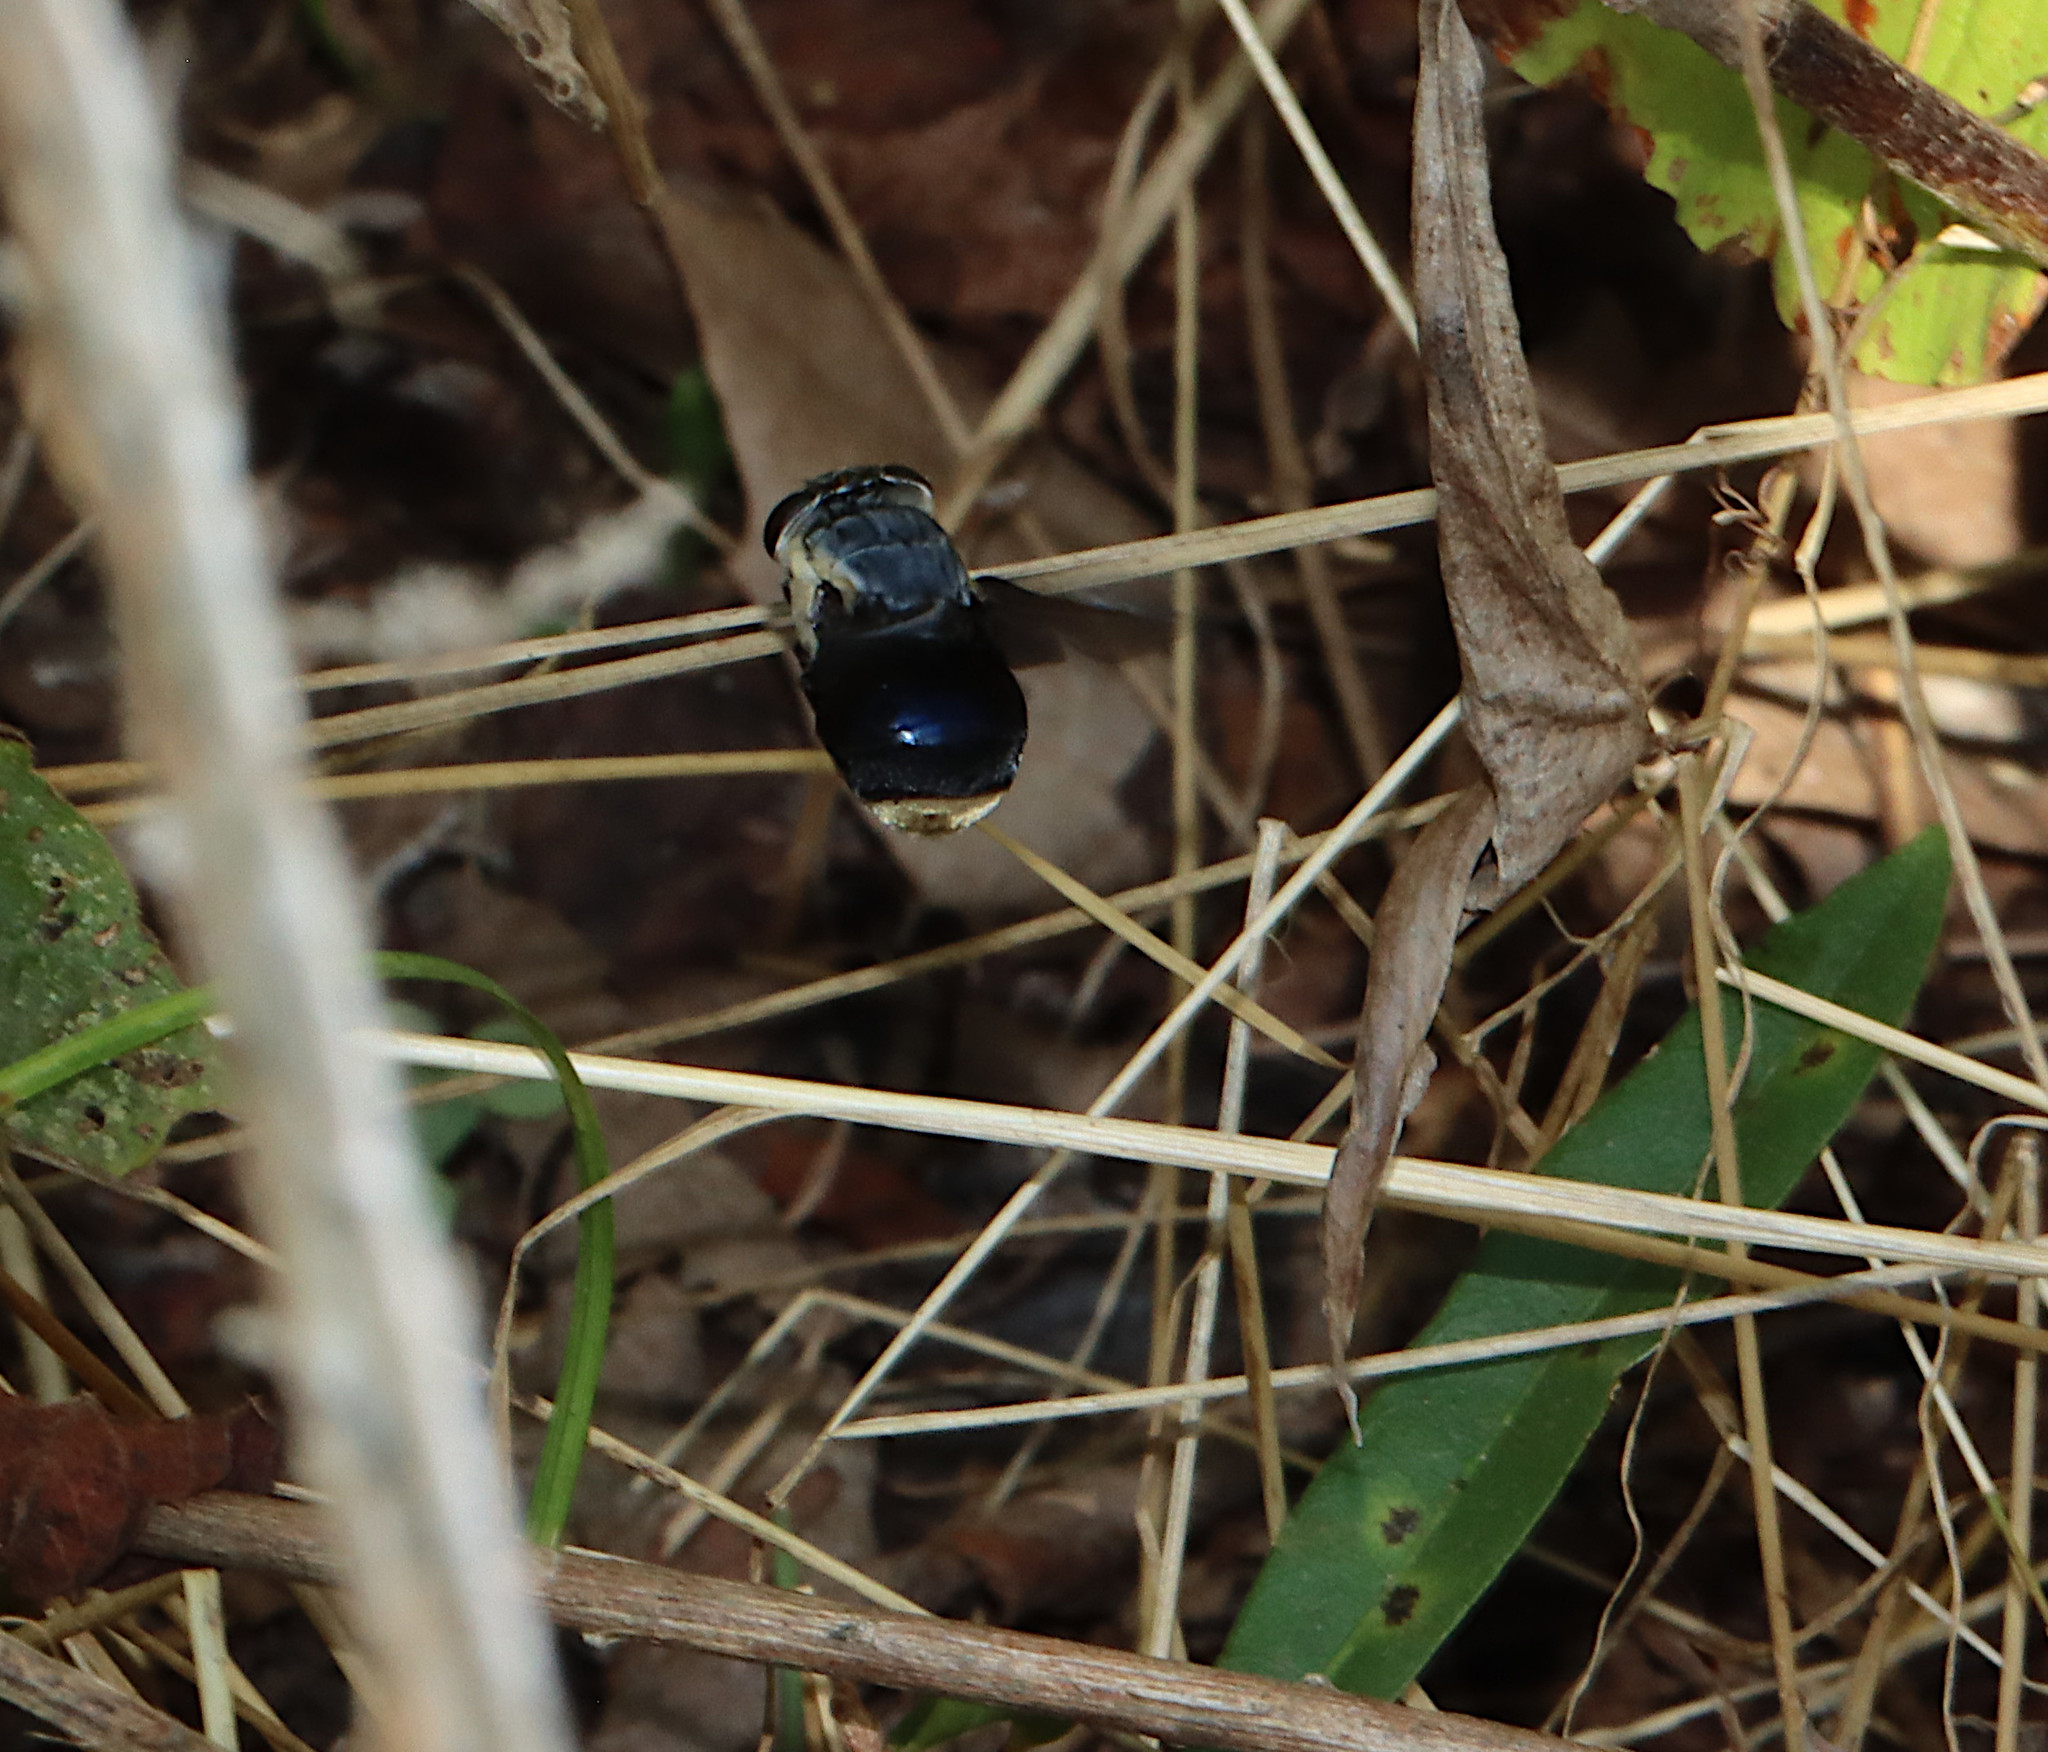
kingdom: Animalia
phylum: Arthropoda
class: Insecta
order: Diptera
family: Oestridae
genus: Cuterebra
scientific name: Cuterebra fontinella
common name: Mouse bot fly
